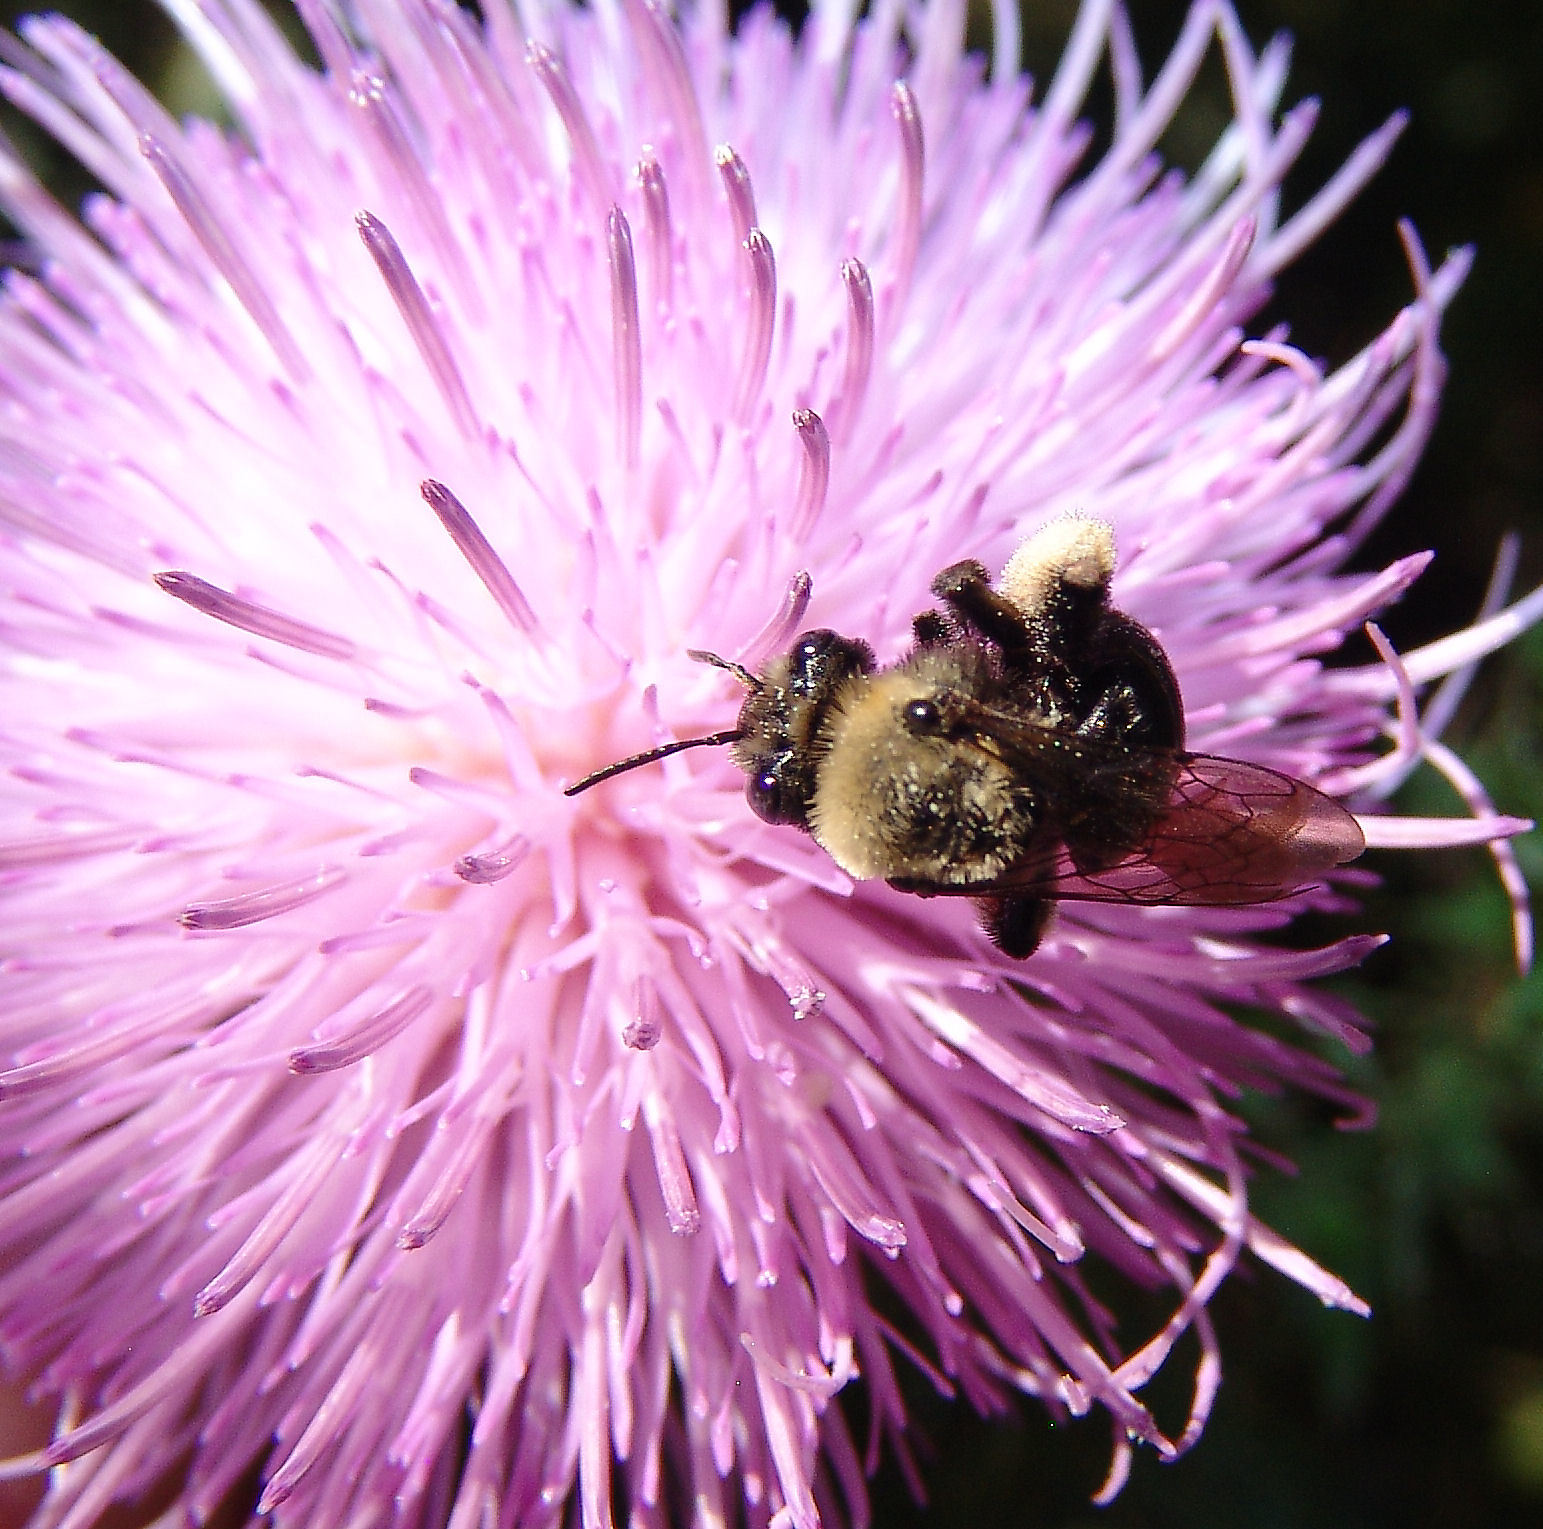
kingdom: Animalia
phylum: Arthropoda
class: Insecta
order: Hymenoptera
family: Apidae
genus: Melissodes
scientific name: Melissodes desponsus
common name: Thistle long-horned bee
